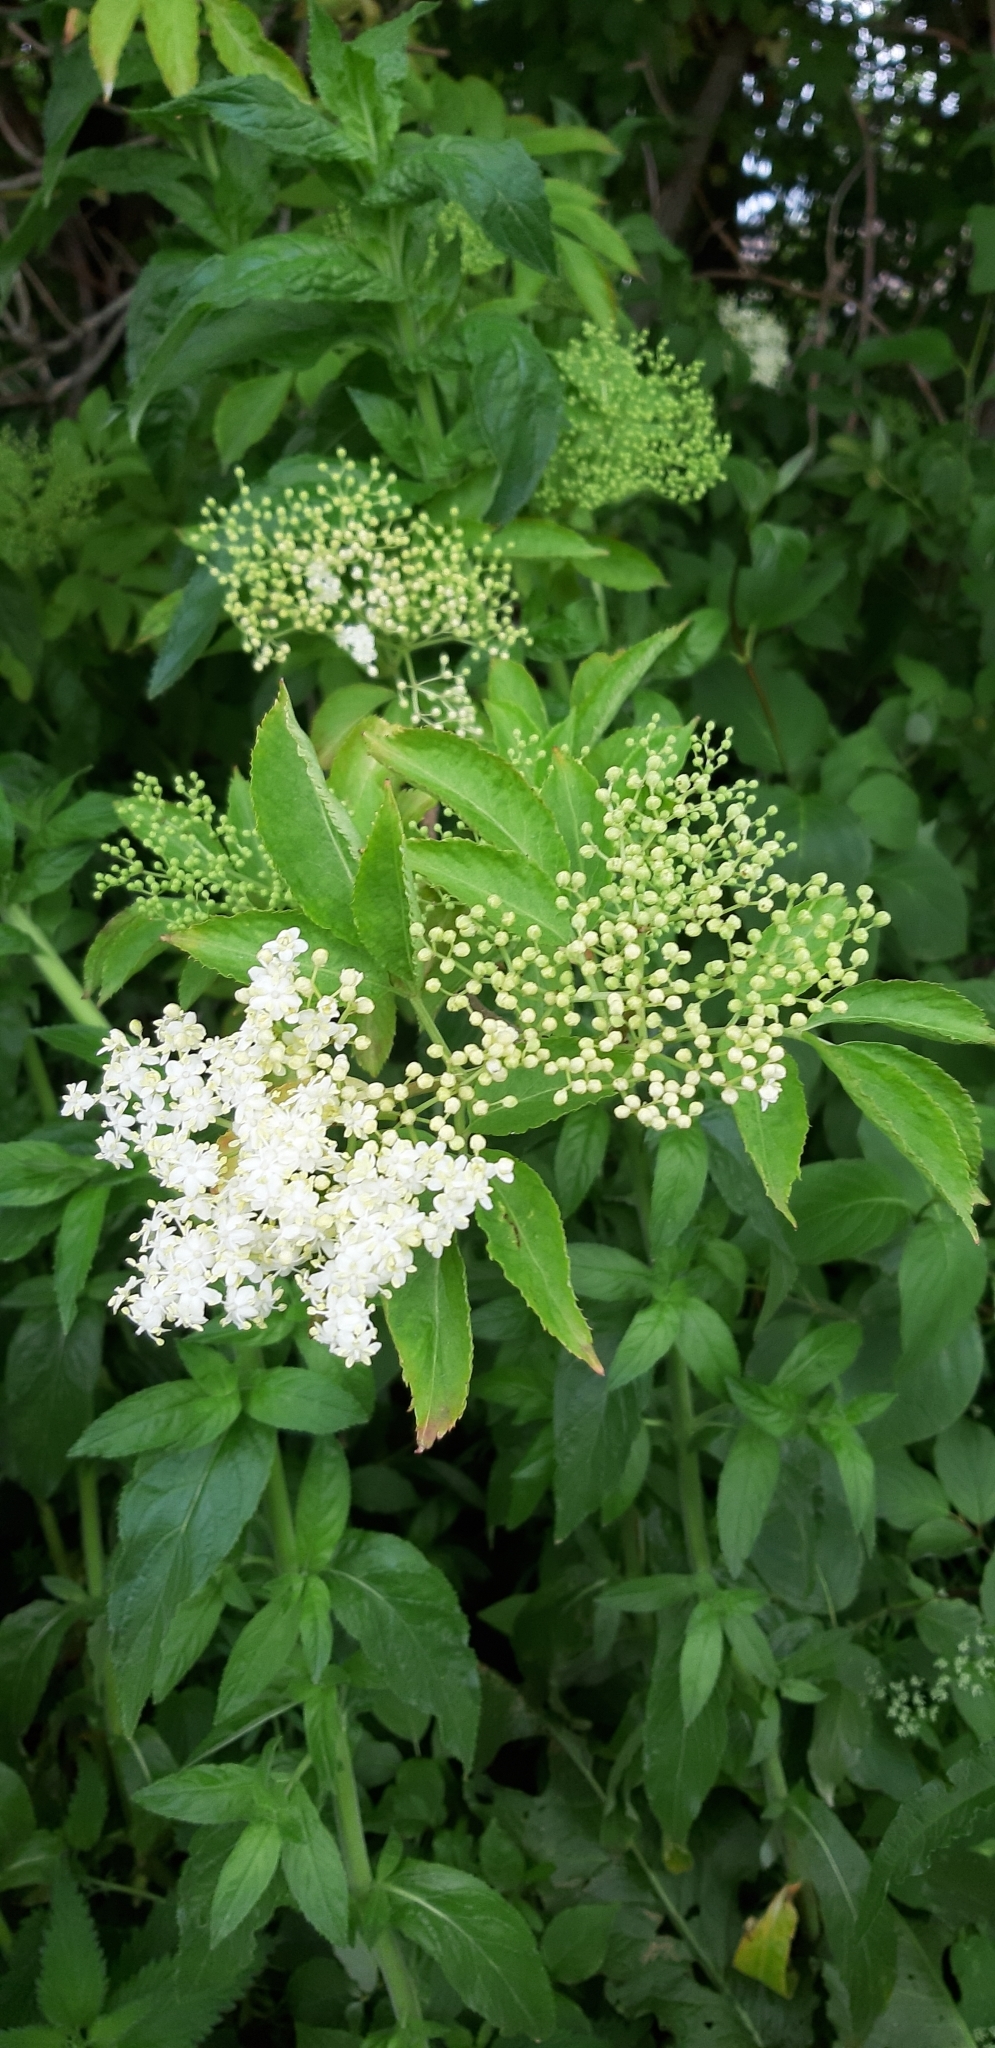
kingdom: Plantae
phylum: Tracheophyta
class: Magnoliopsida
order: Dipsacales
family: Viburnaceae
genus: Sambucus
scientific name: Sambucus nigra
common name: Elder
